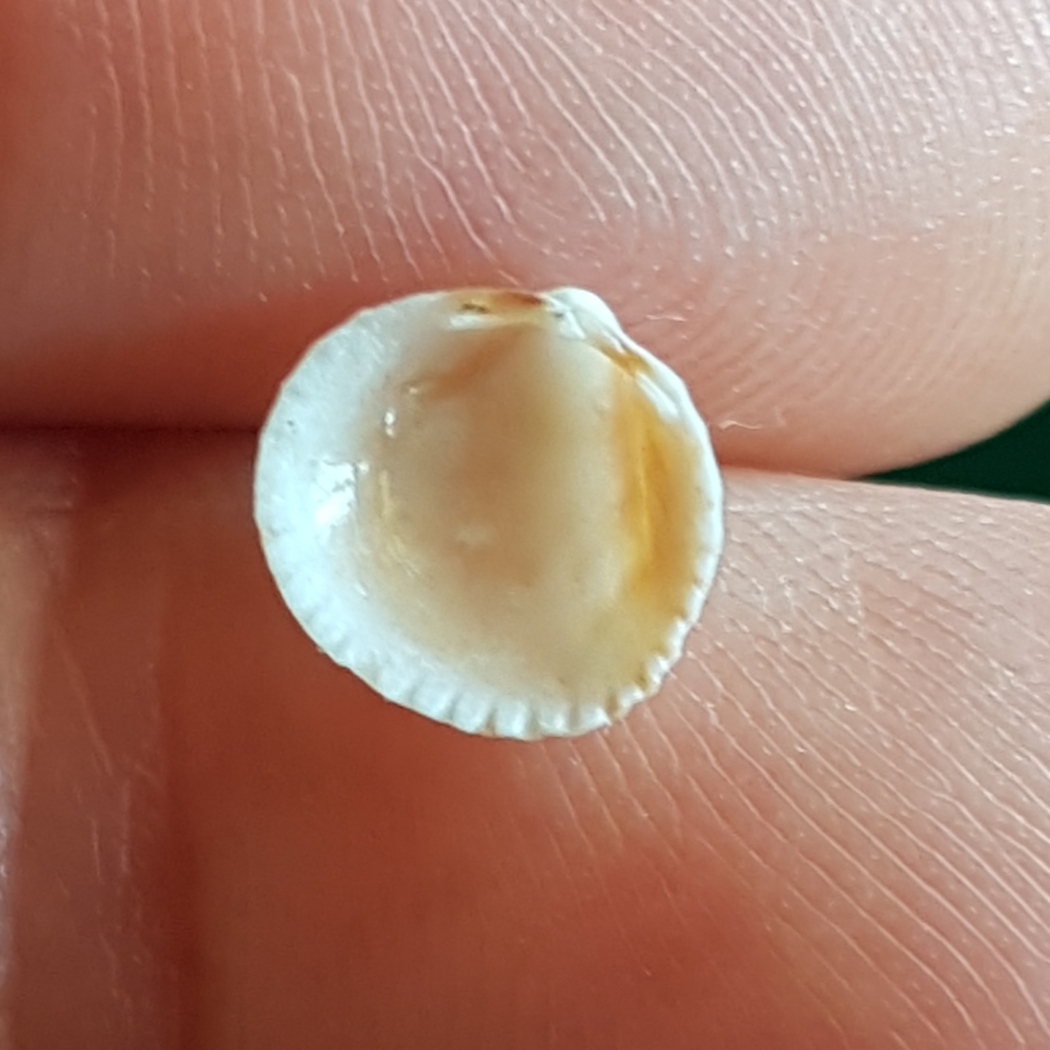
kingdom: Animalia
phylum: Mollusca
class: Bivalvia
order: Cardiida
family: Cardiidae
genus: Papillicardium
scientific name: Papillicardium papillosum
